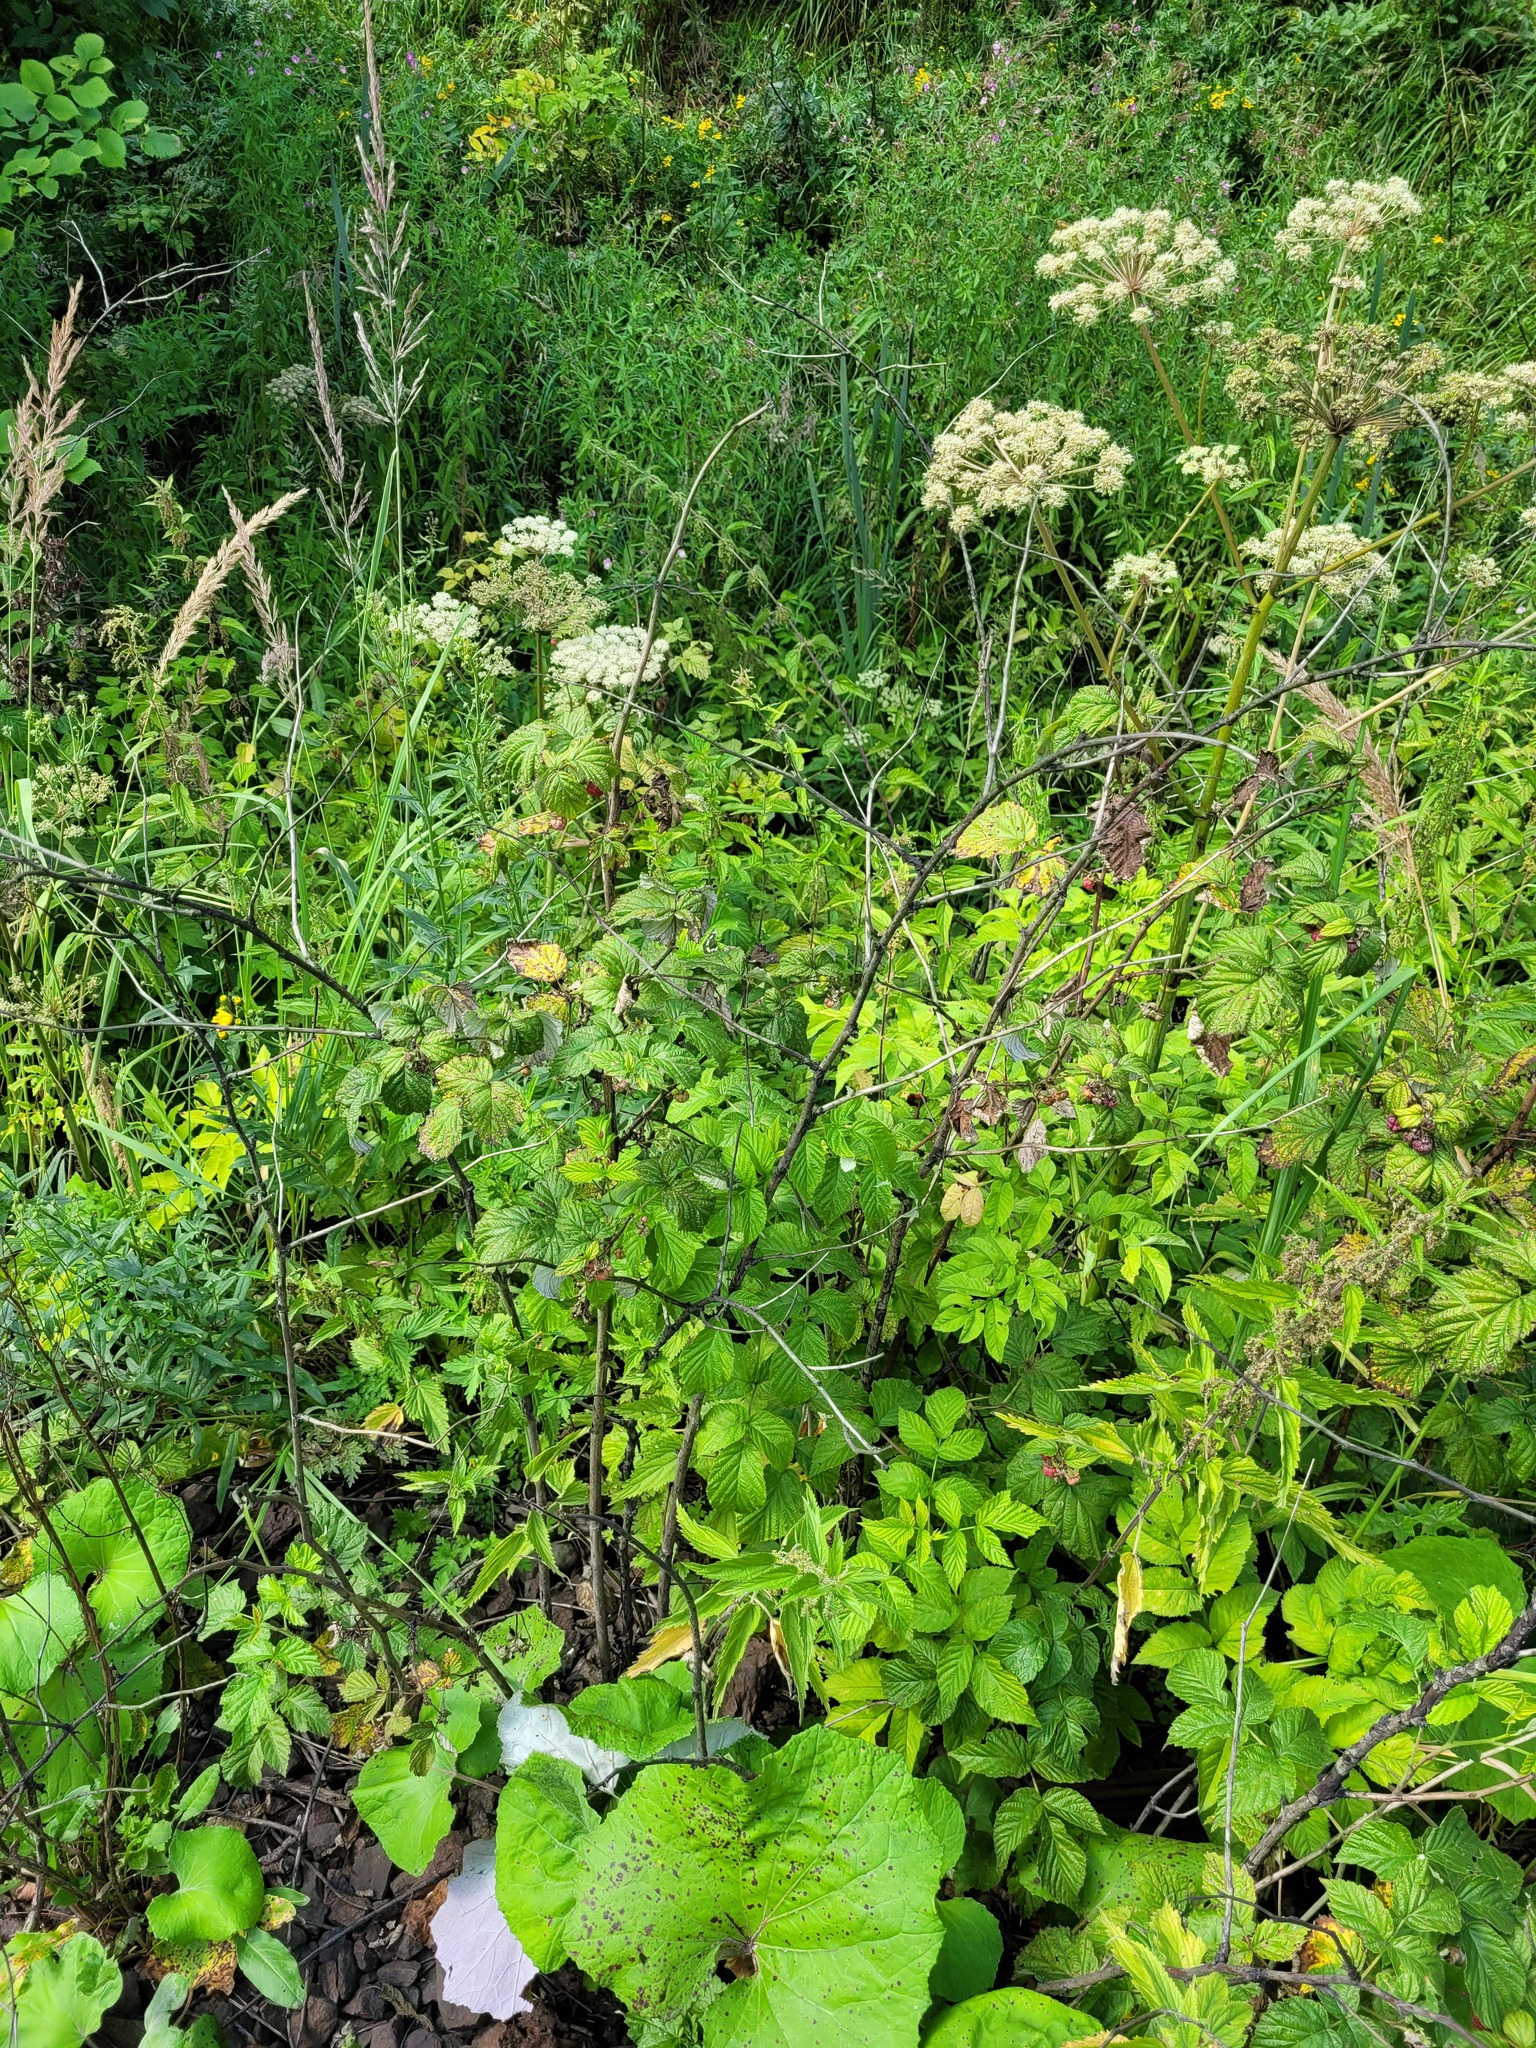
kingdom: Plantae
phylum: Tracheophyta
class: Magnoliopsida
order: Rosales
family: Rosaceae
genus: Rubus
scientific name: Rubus idaeus
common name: Raspberry
